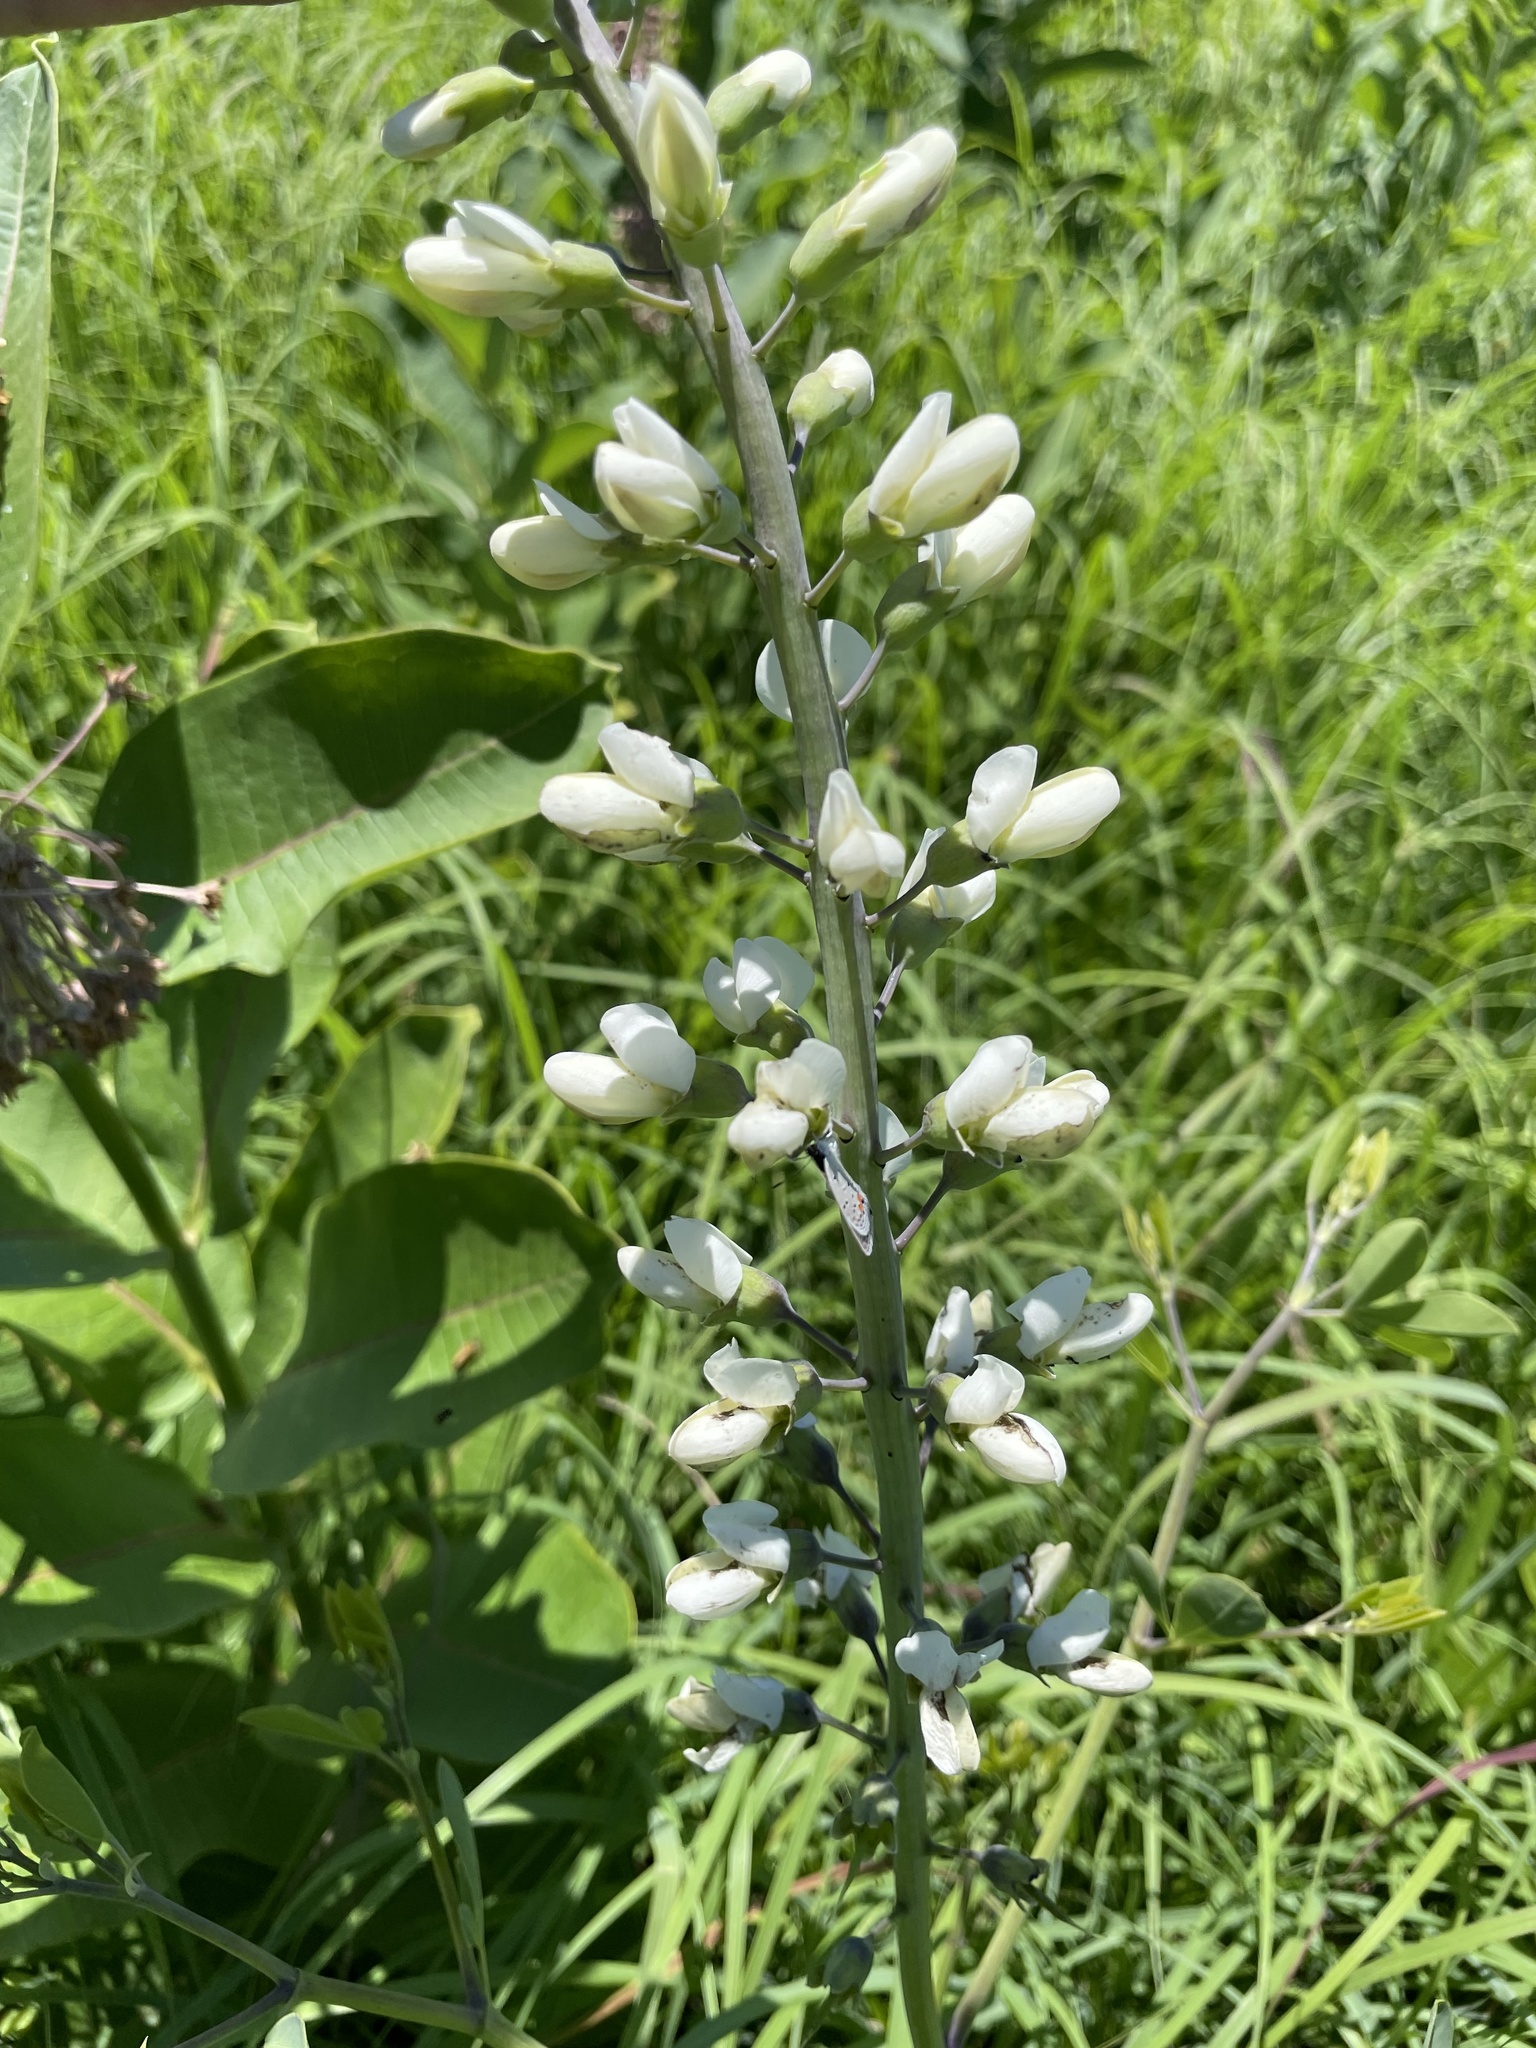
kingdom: Plantae
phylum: Tracheophyta
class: Magnoliopsida
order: Fabales
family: Fabaceae
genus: Baptisia
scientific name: Baptisia alba
